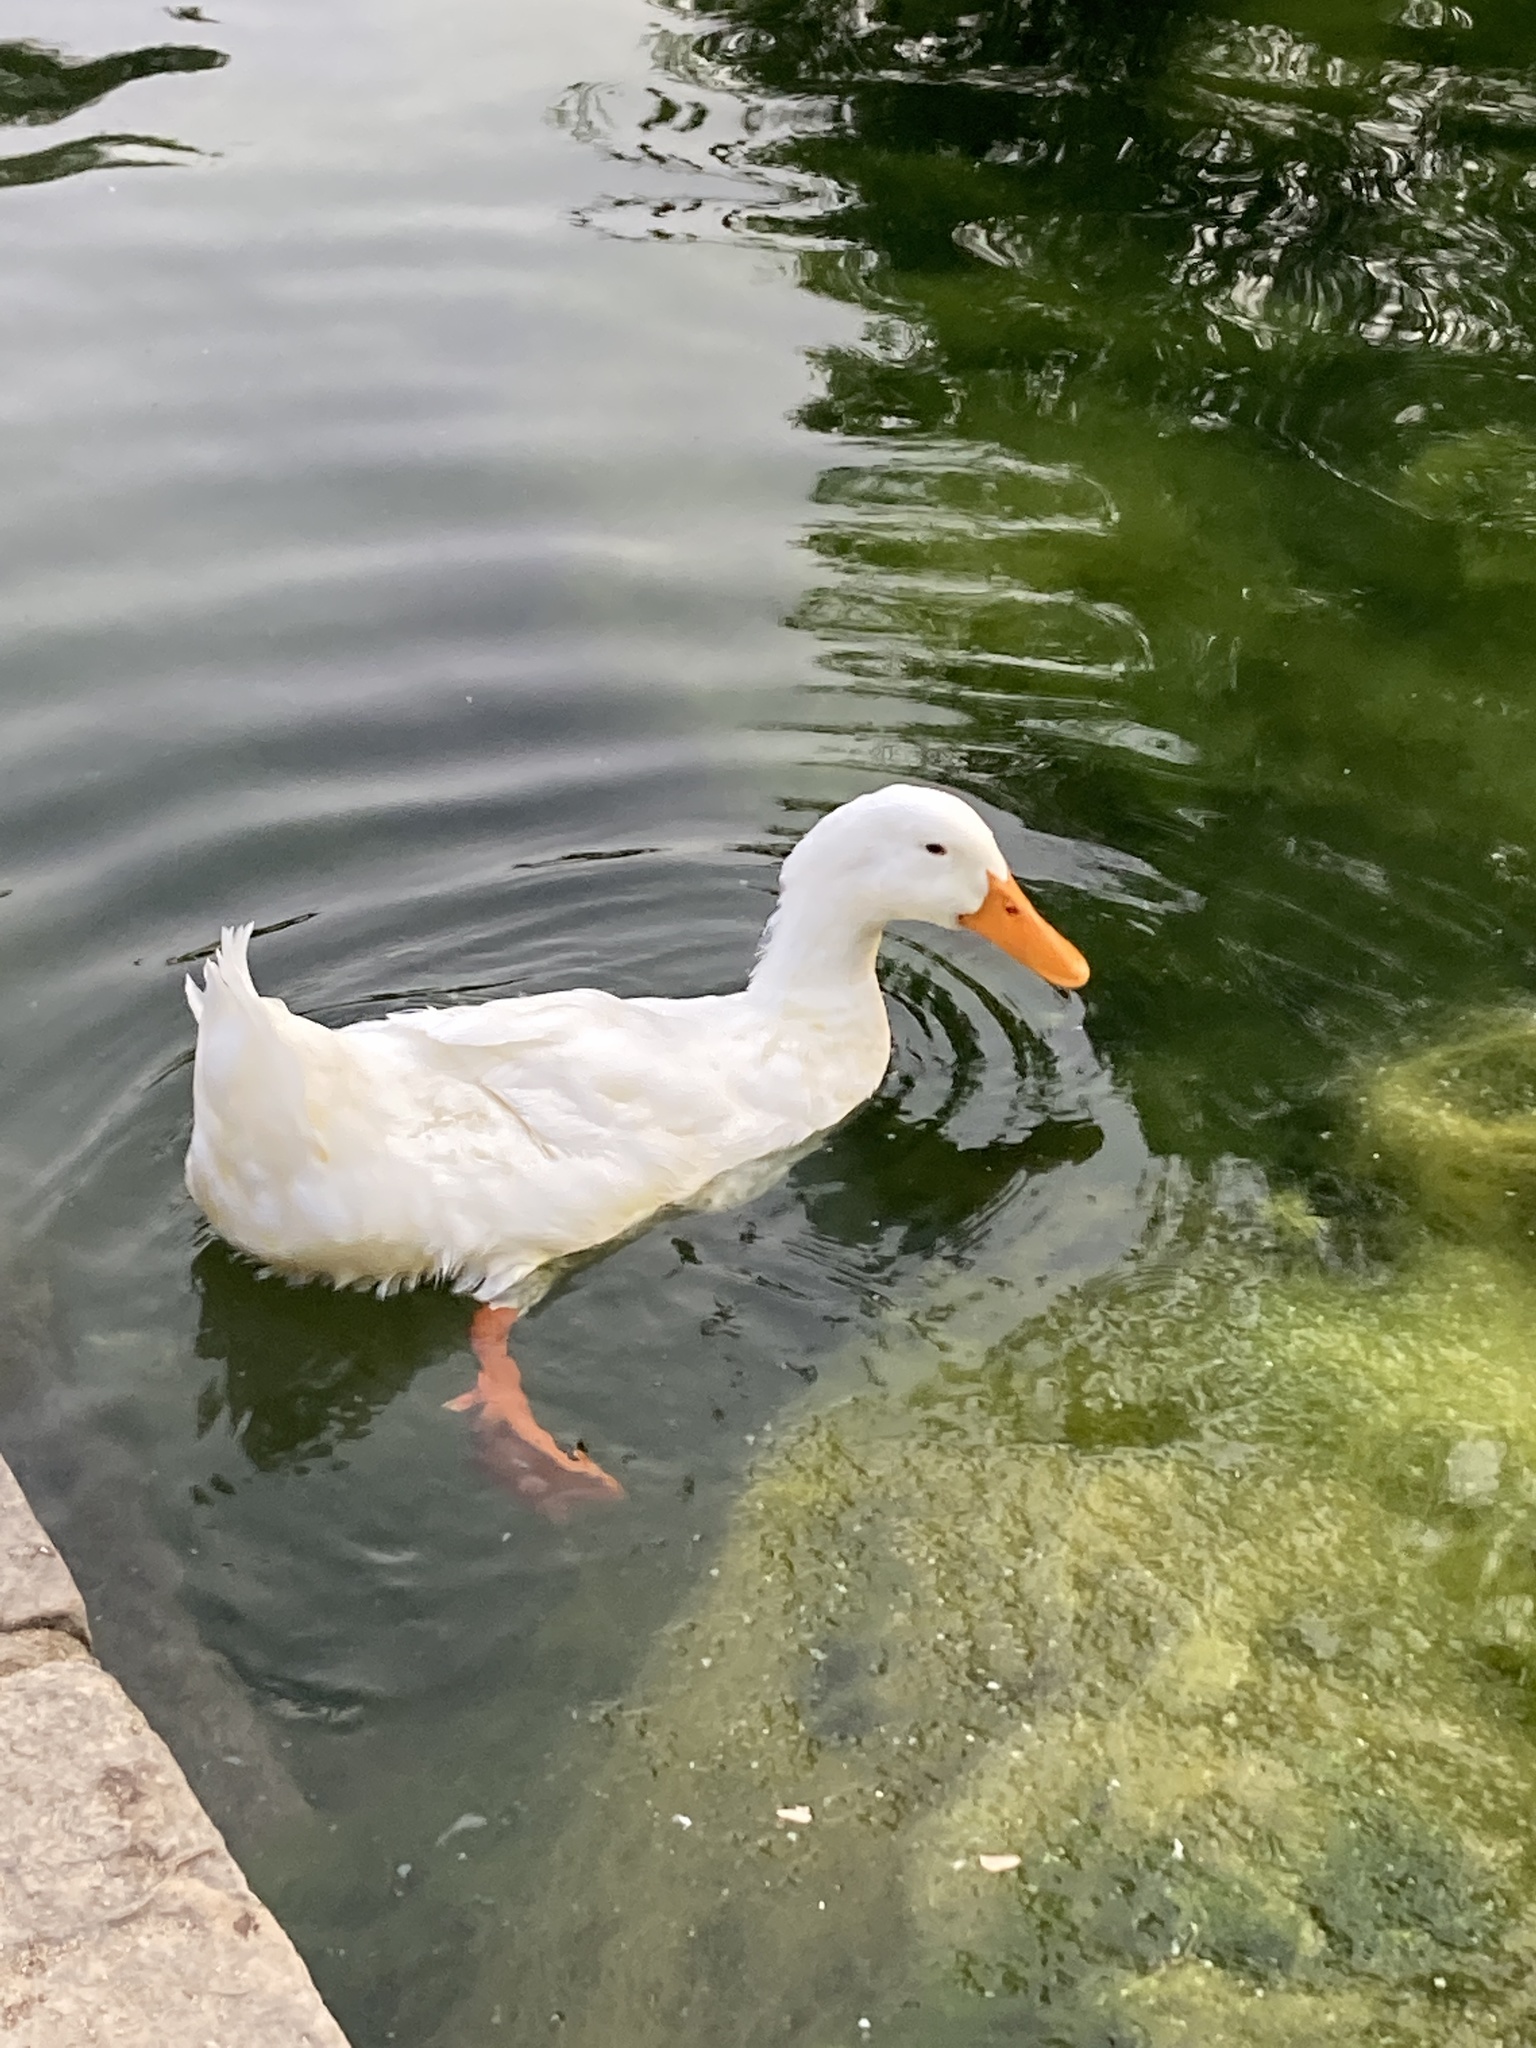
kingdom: Animalia
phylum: Chordata
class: Aves
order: Anseriformes
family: Anatidae
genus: Anas
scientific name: Anas platyrhynchos
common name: Mallard
